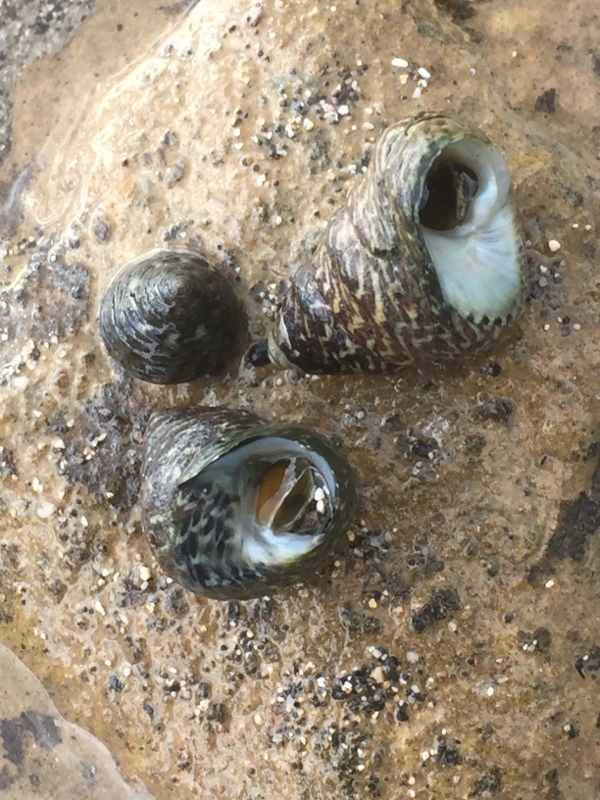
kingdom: Animalia
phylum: Mollusca
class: Gastropoda
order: Trochida
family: Trochidae
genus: Phorcus
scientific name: Phorcus atratus
